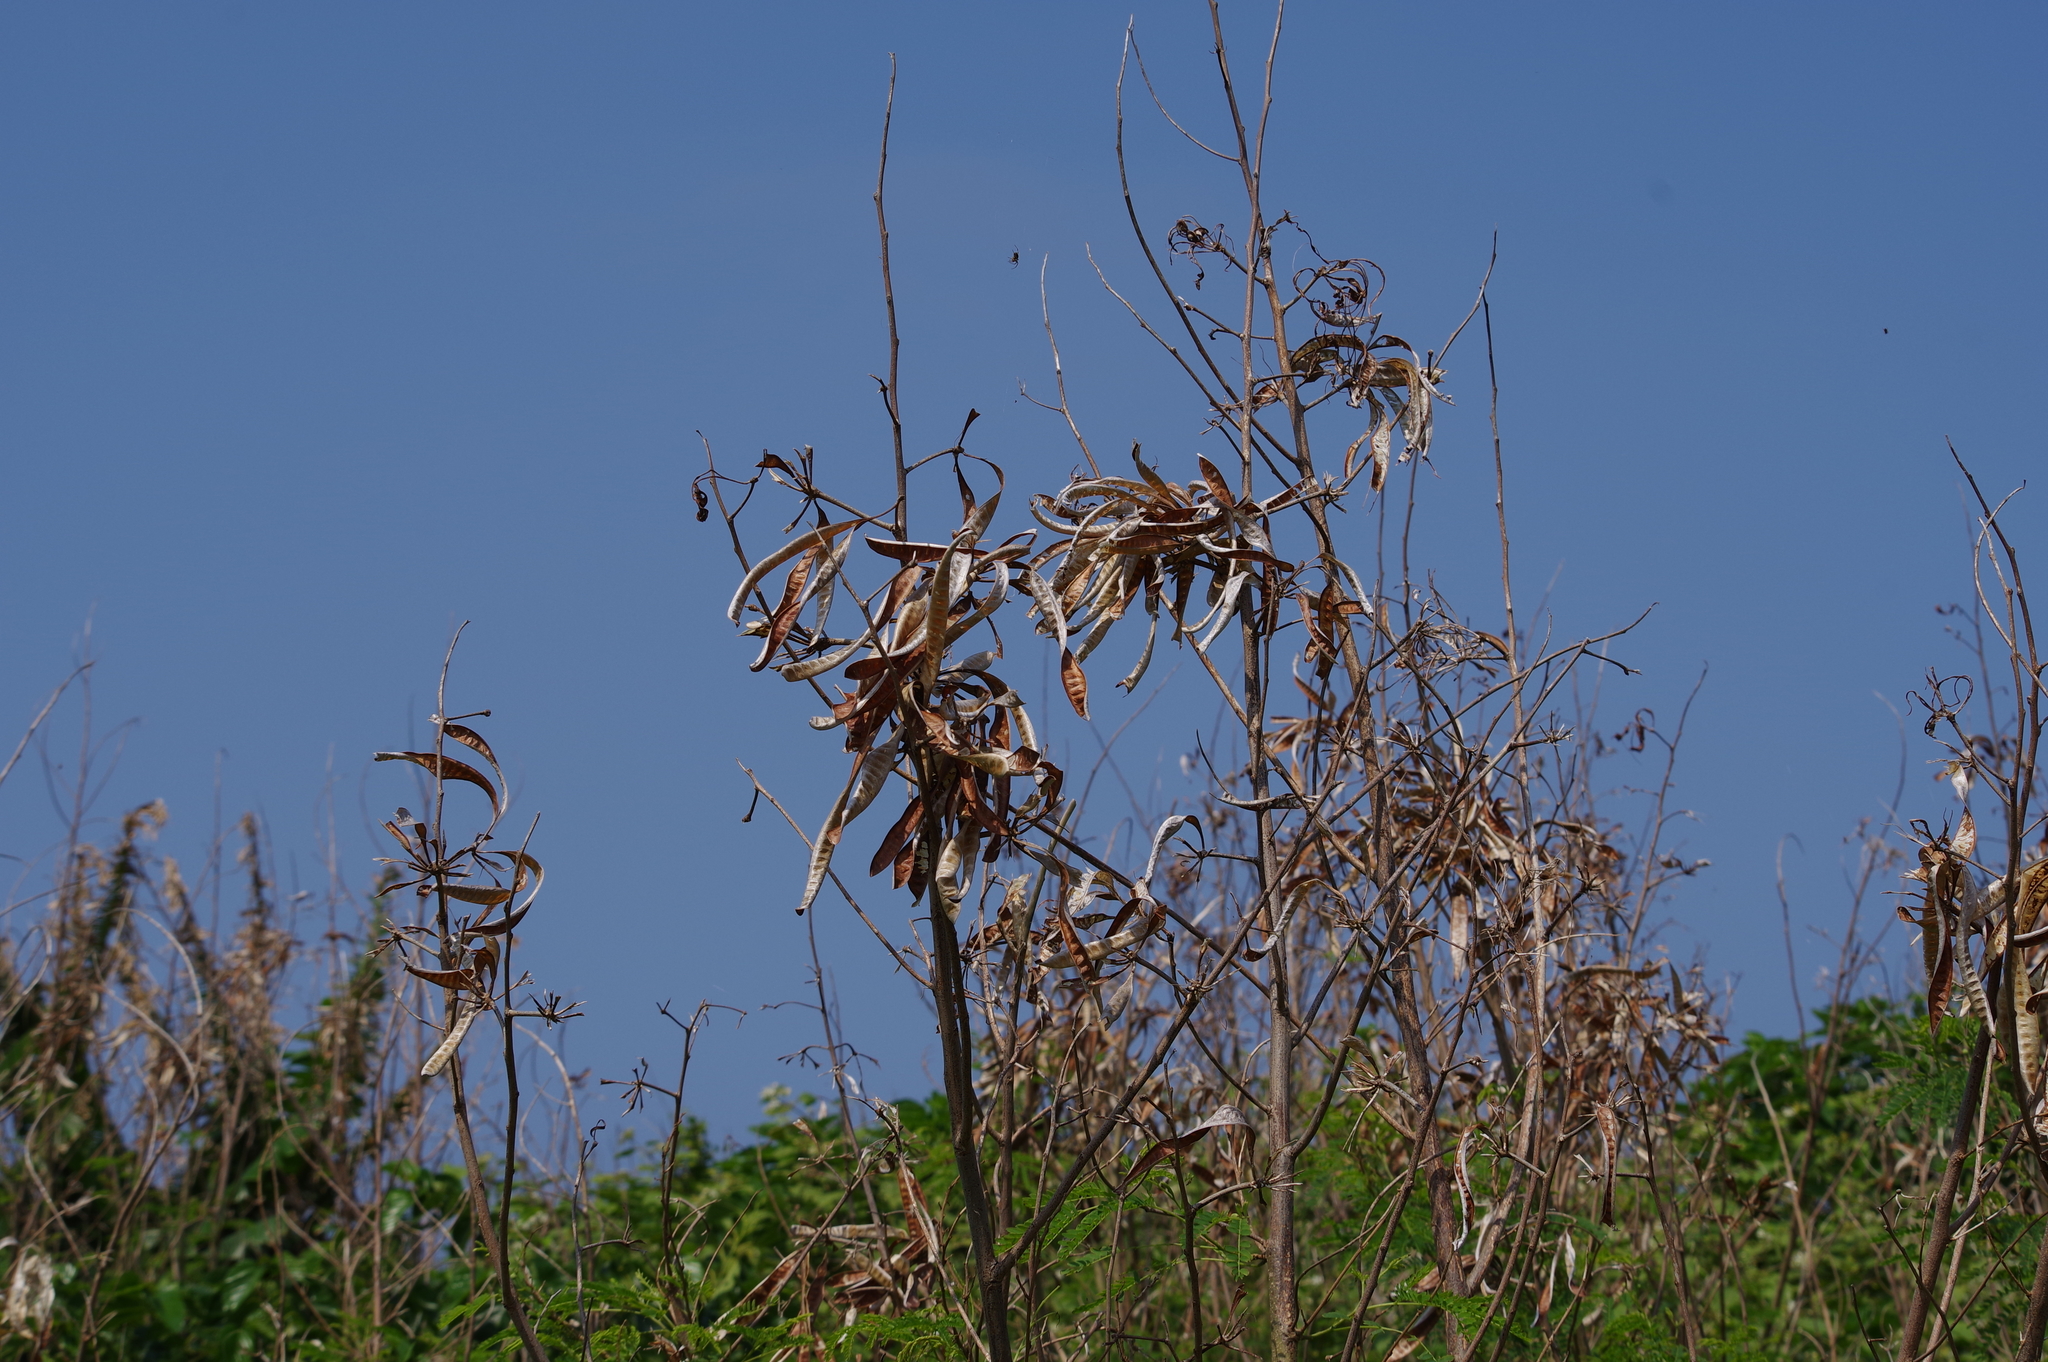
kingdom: Plantae
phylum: Tracheophyta
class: Magnoliopsida
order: Fabales
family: Fabaceae
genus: Leucaena
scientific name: Leucaena leucocephala
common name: White leadtree
